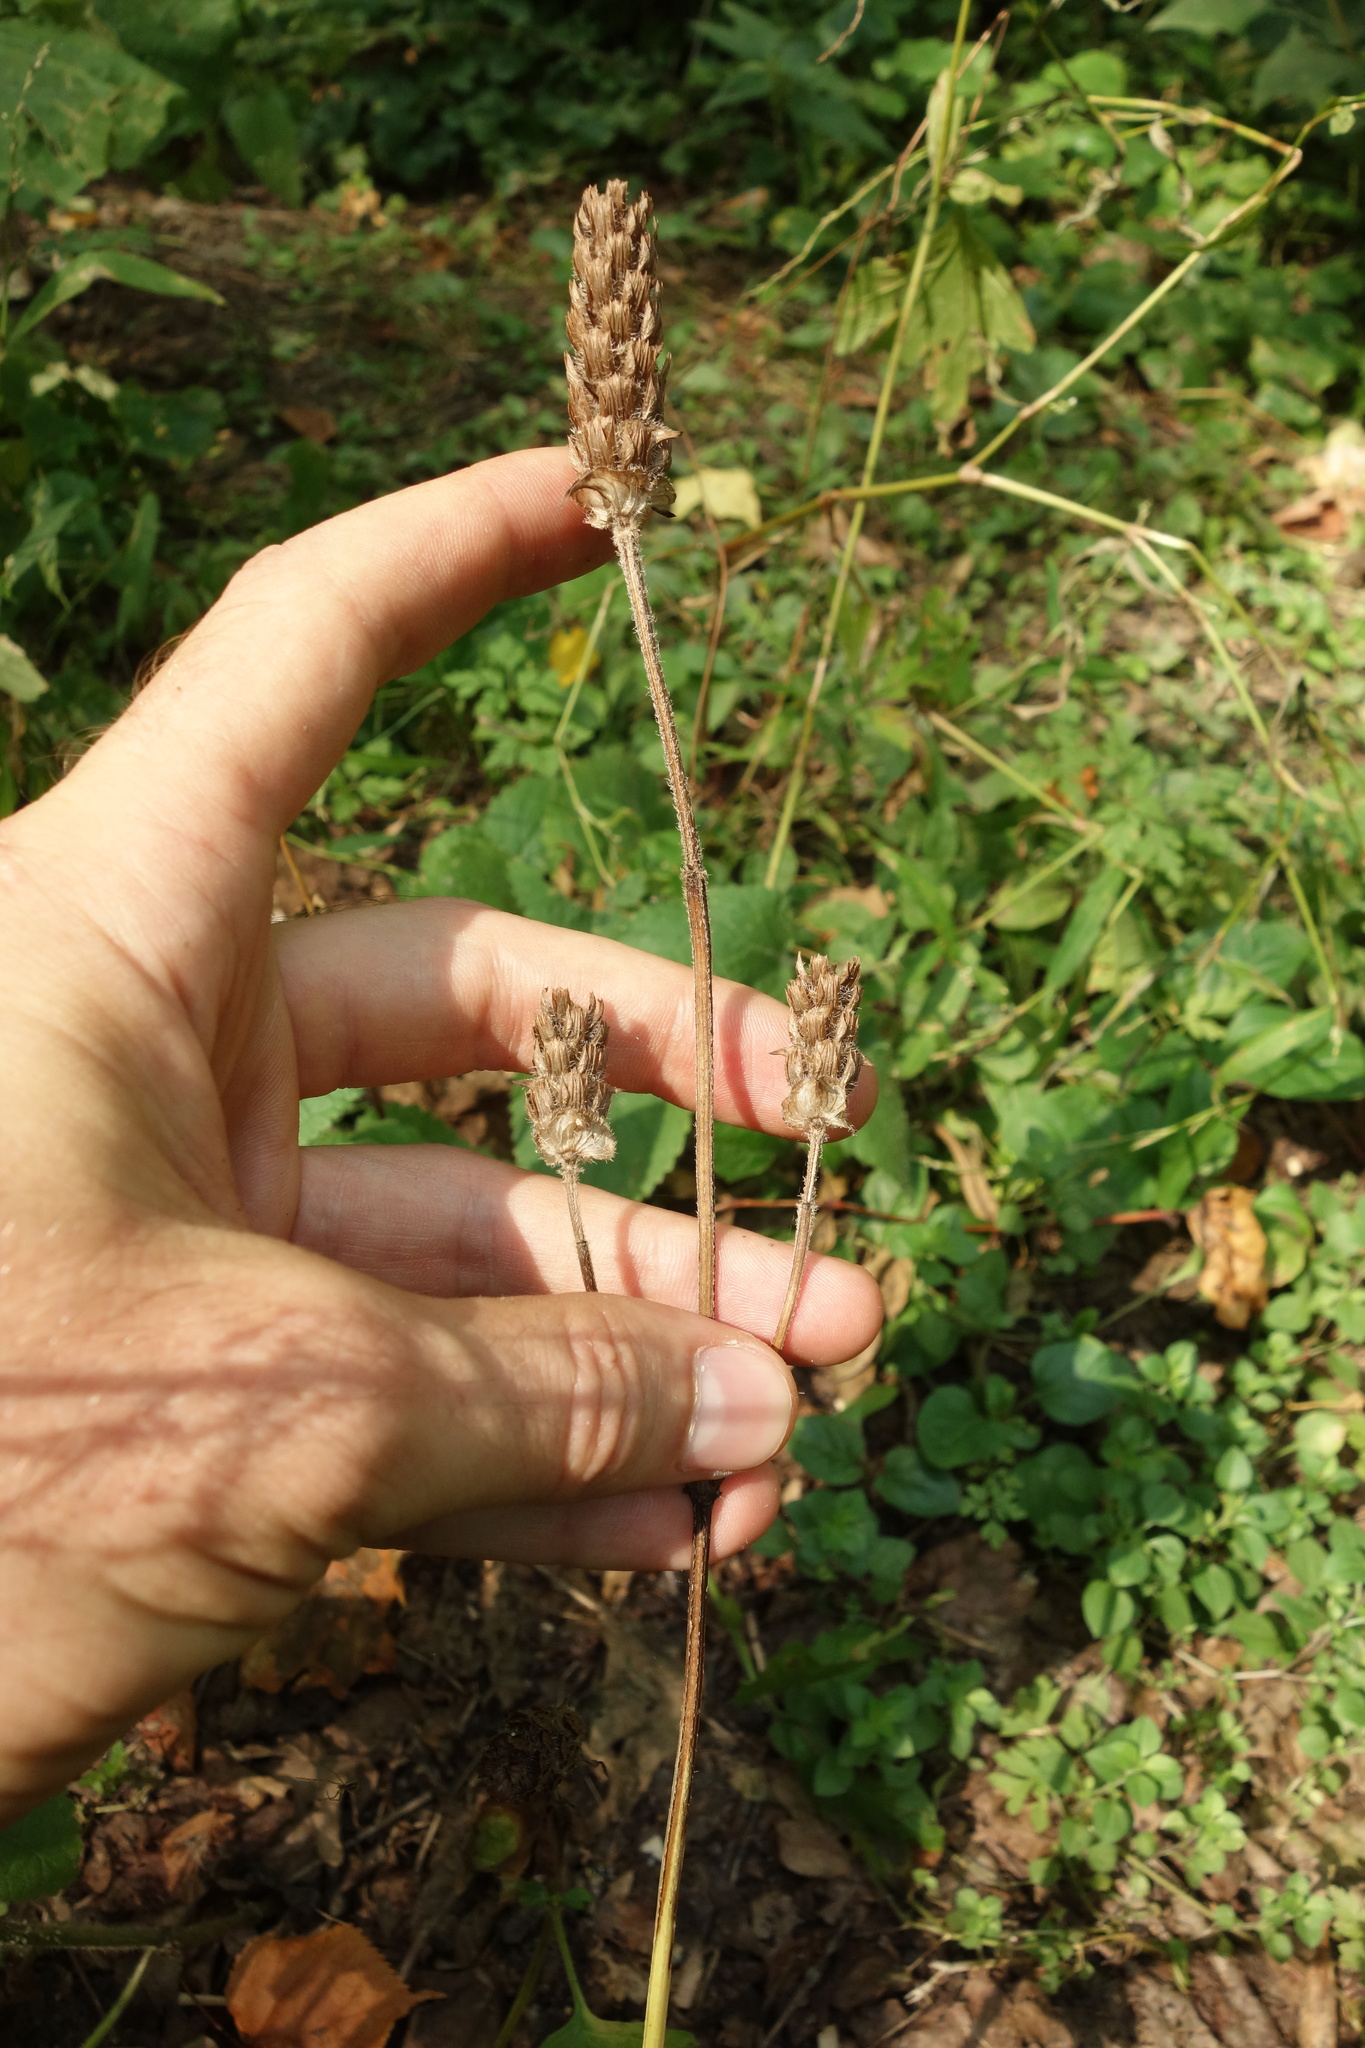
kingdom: Plantae
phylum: Tracheophyta
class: Magnoliopsida
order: Lamiales
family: Lamiaceae
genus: Prunella
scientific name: Prunella vulgaris
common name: Heal-all
